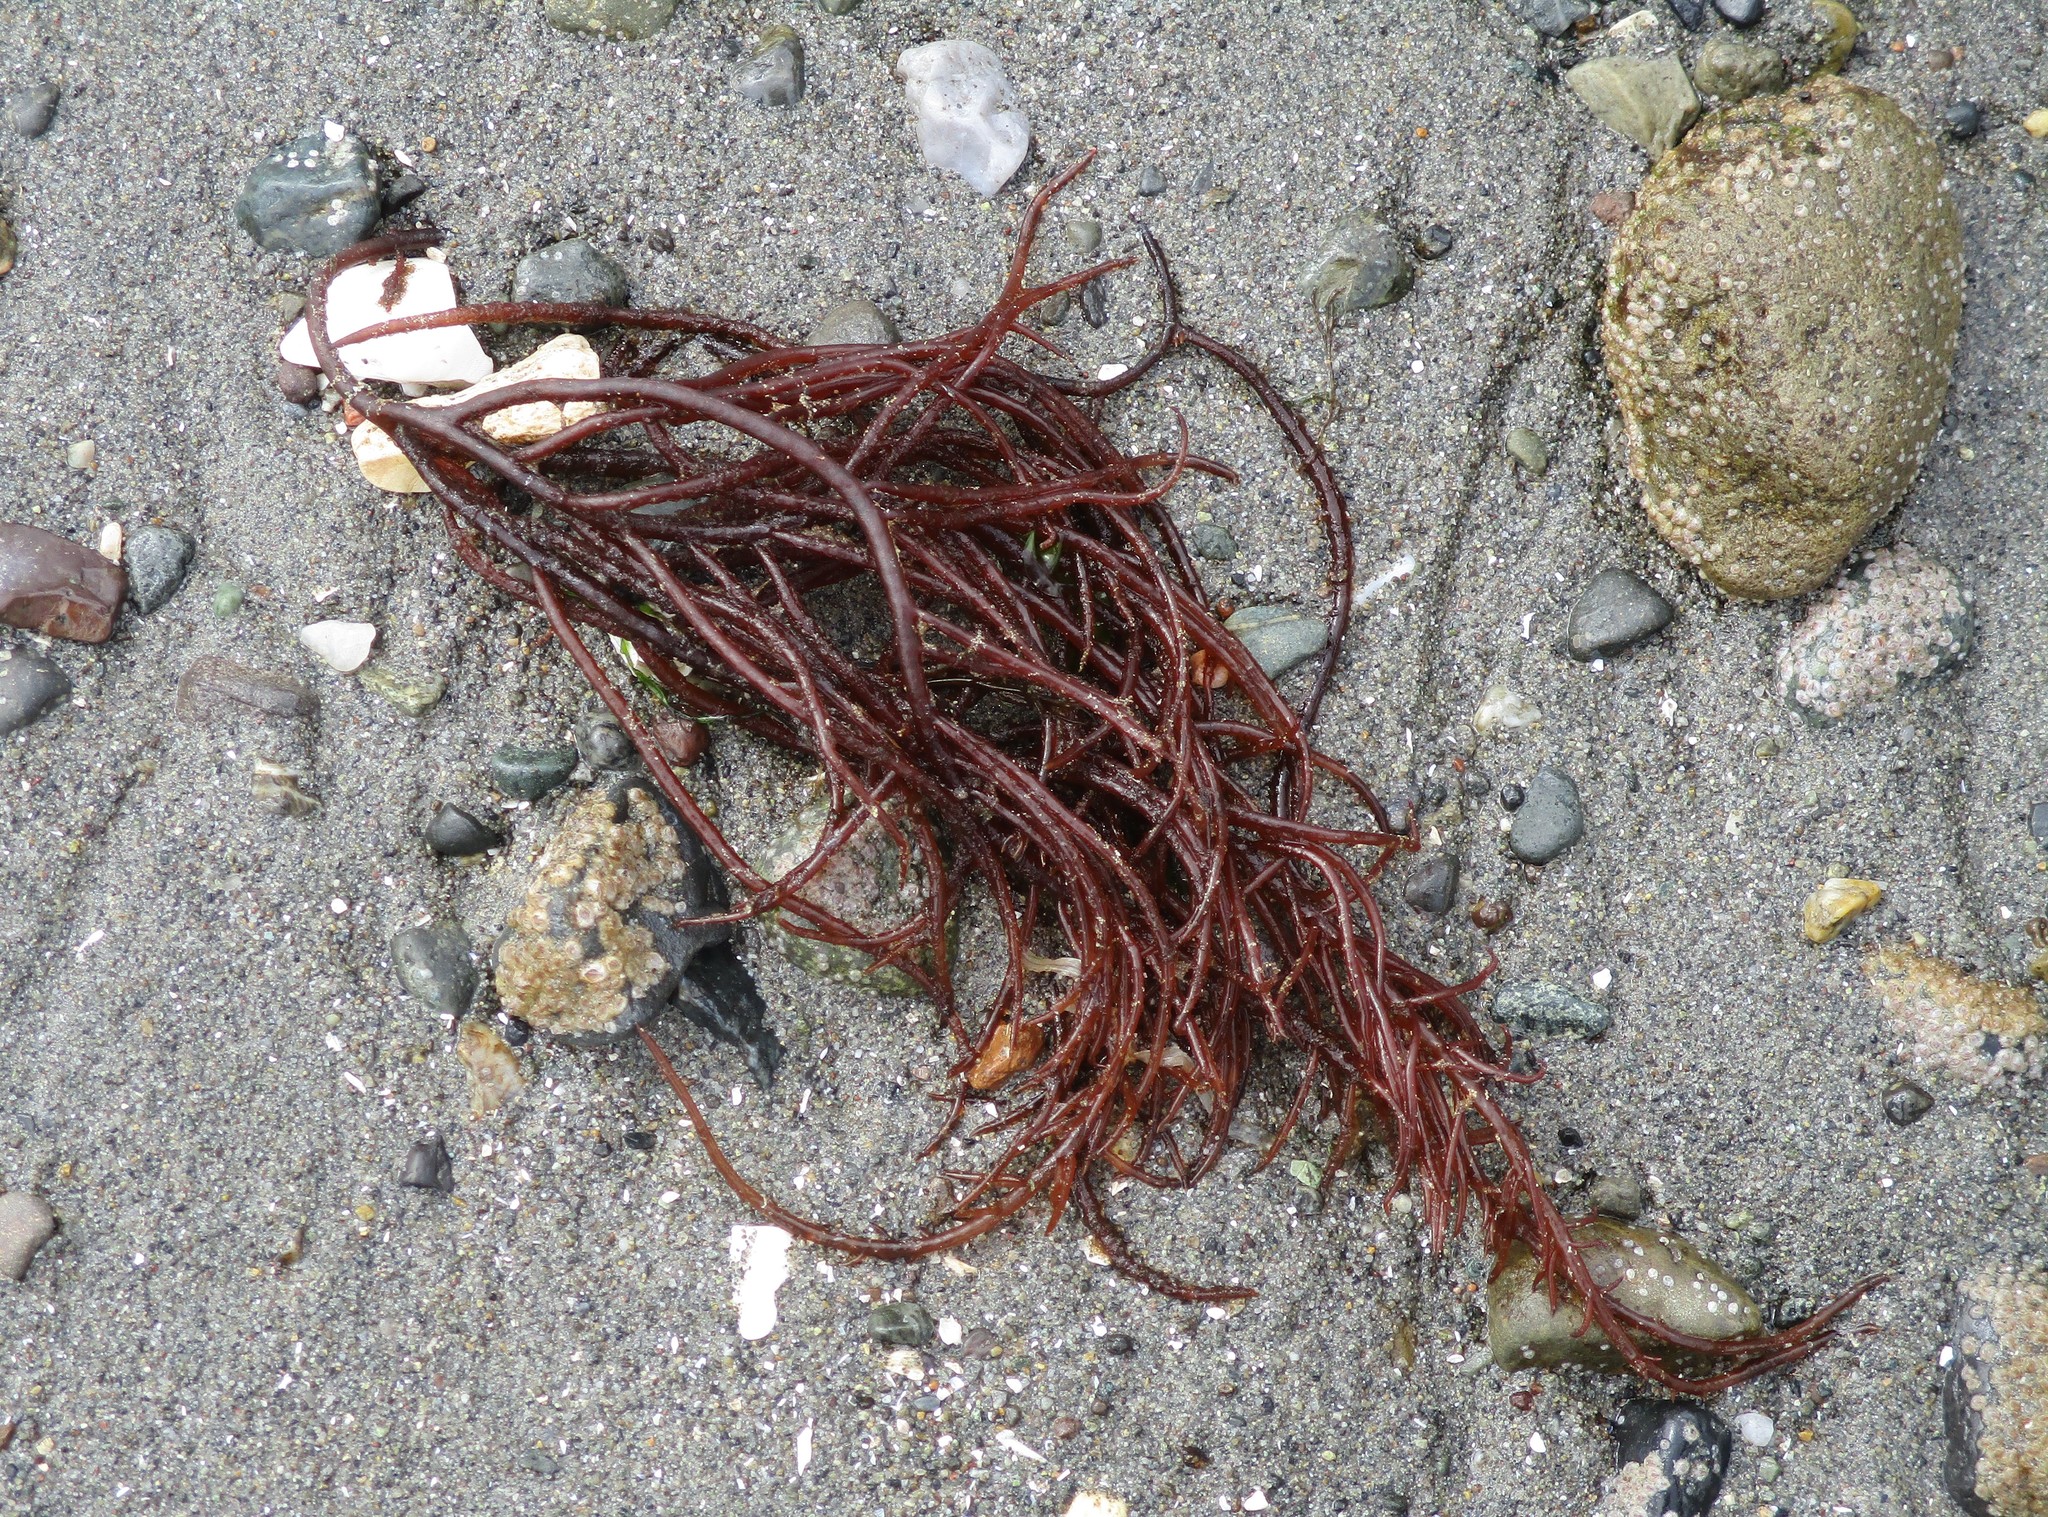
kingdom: Plantae
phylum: Rhodophyta
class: Florideophyceae
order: Gigartinales
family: Solieriaceae
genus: Sarcodiotheca
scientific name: Sarcodiotheca gaudichaudii
